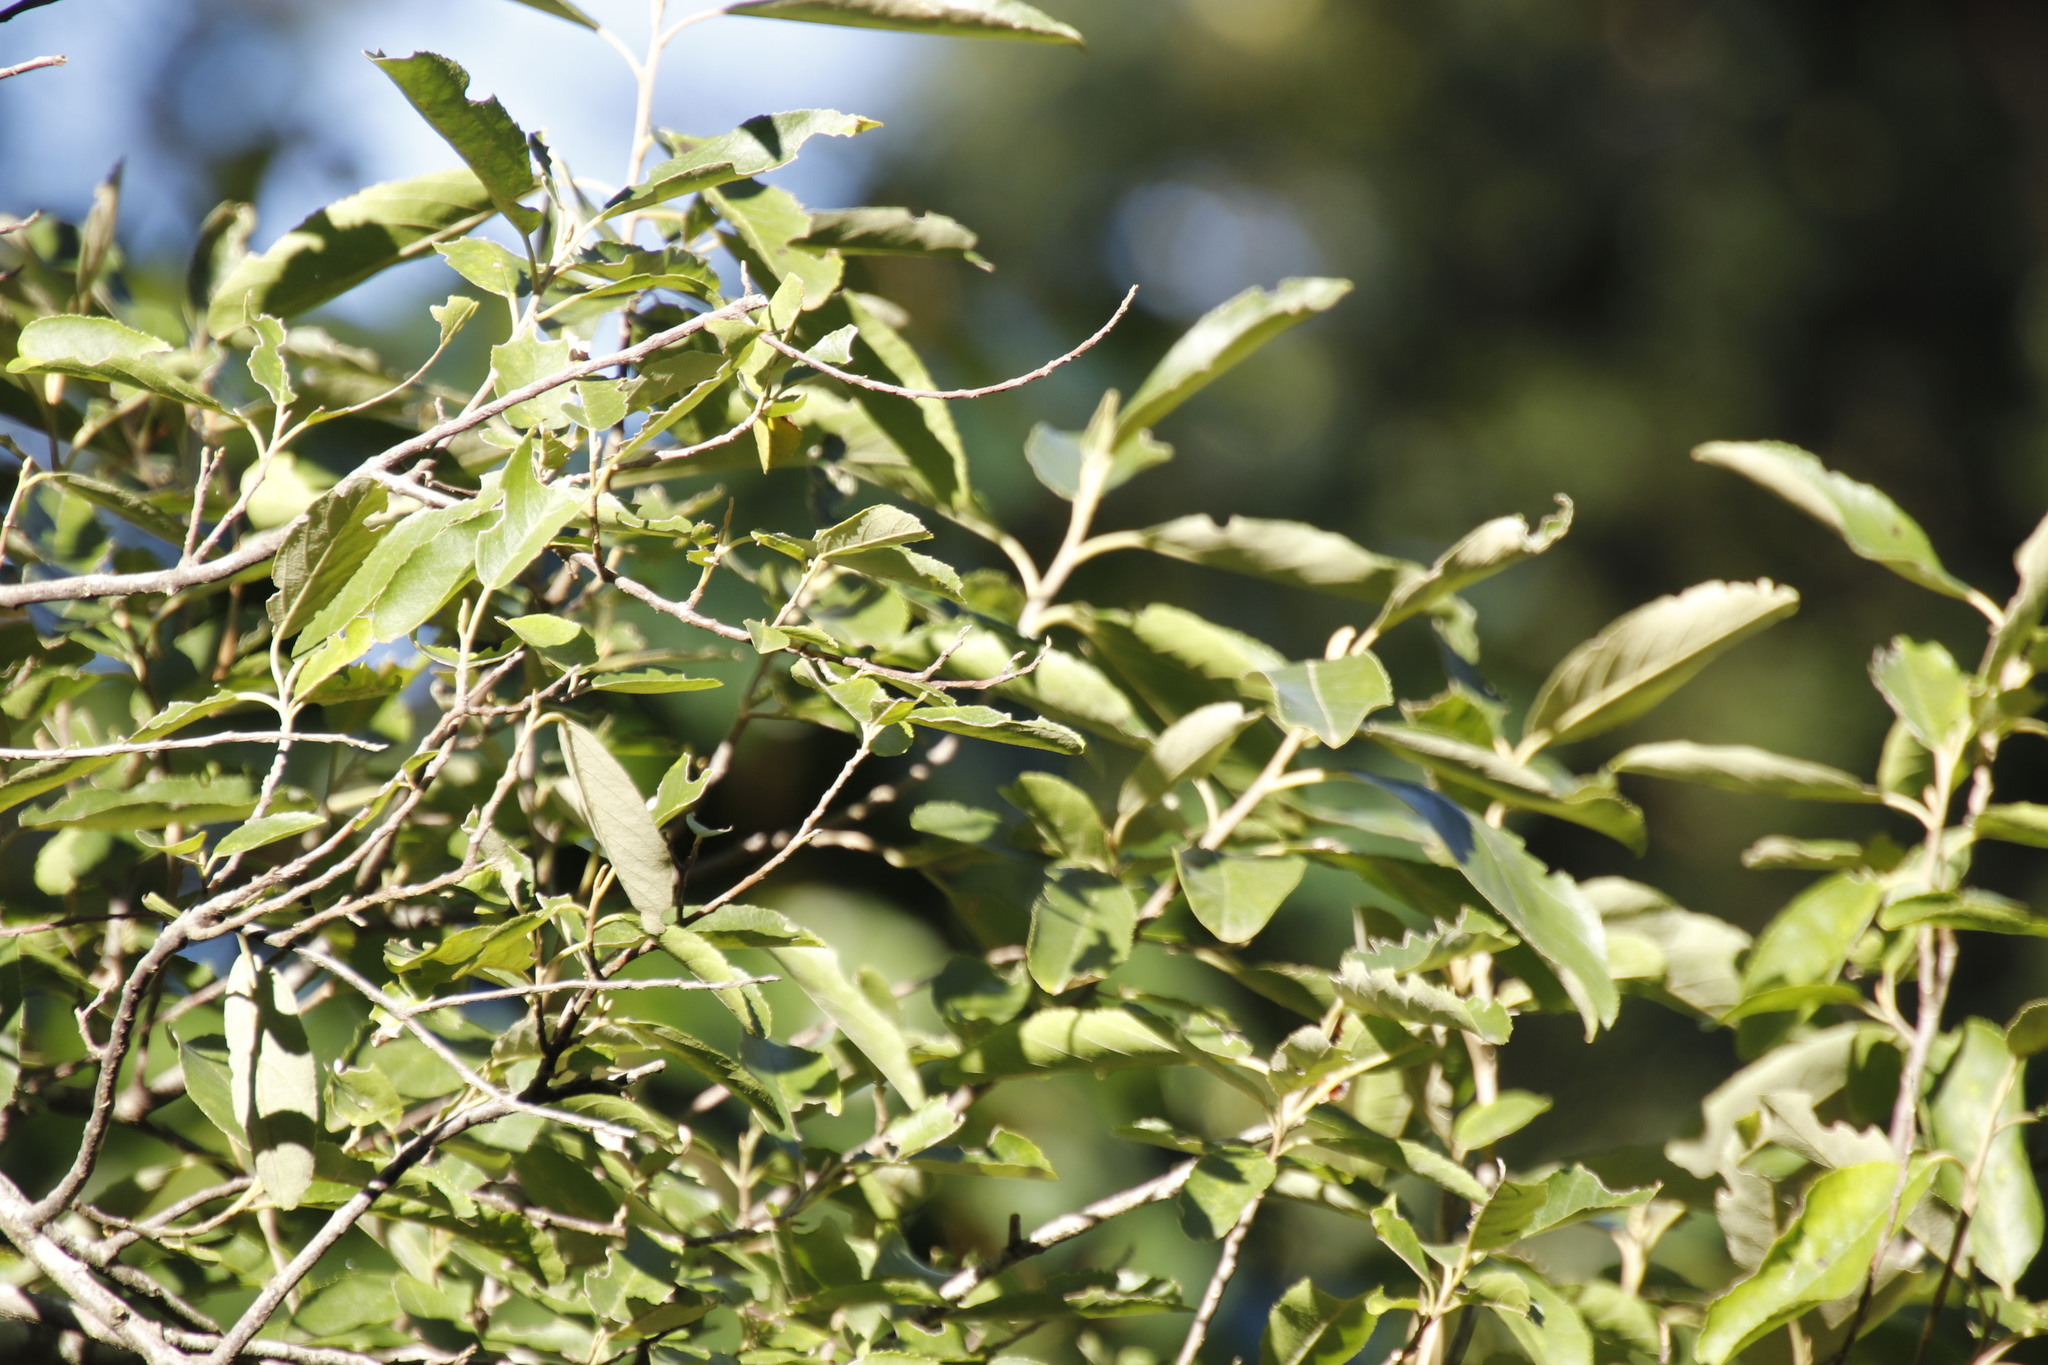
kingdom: Plantae
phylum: Tracheophyta
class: Magnoliopsida
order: Malpighiales
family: Achariaceae
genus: Kiggelaria
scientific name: Kiggelaria africana
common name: Wild peach
